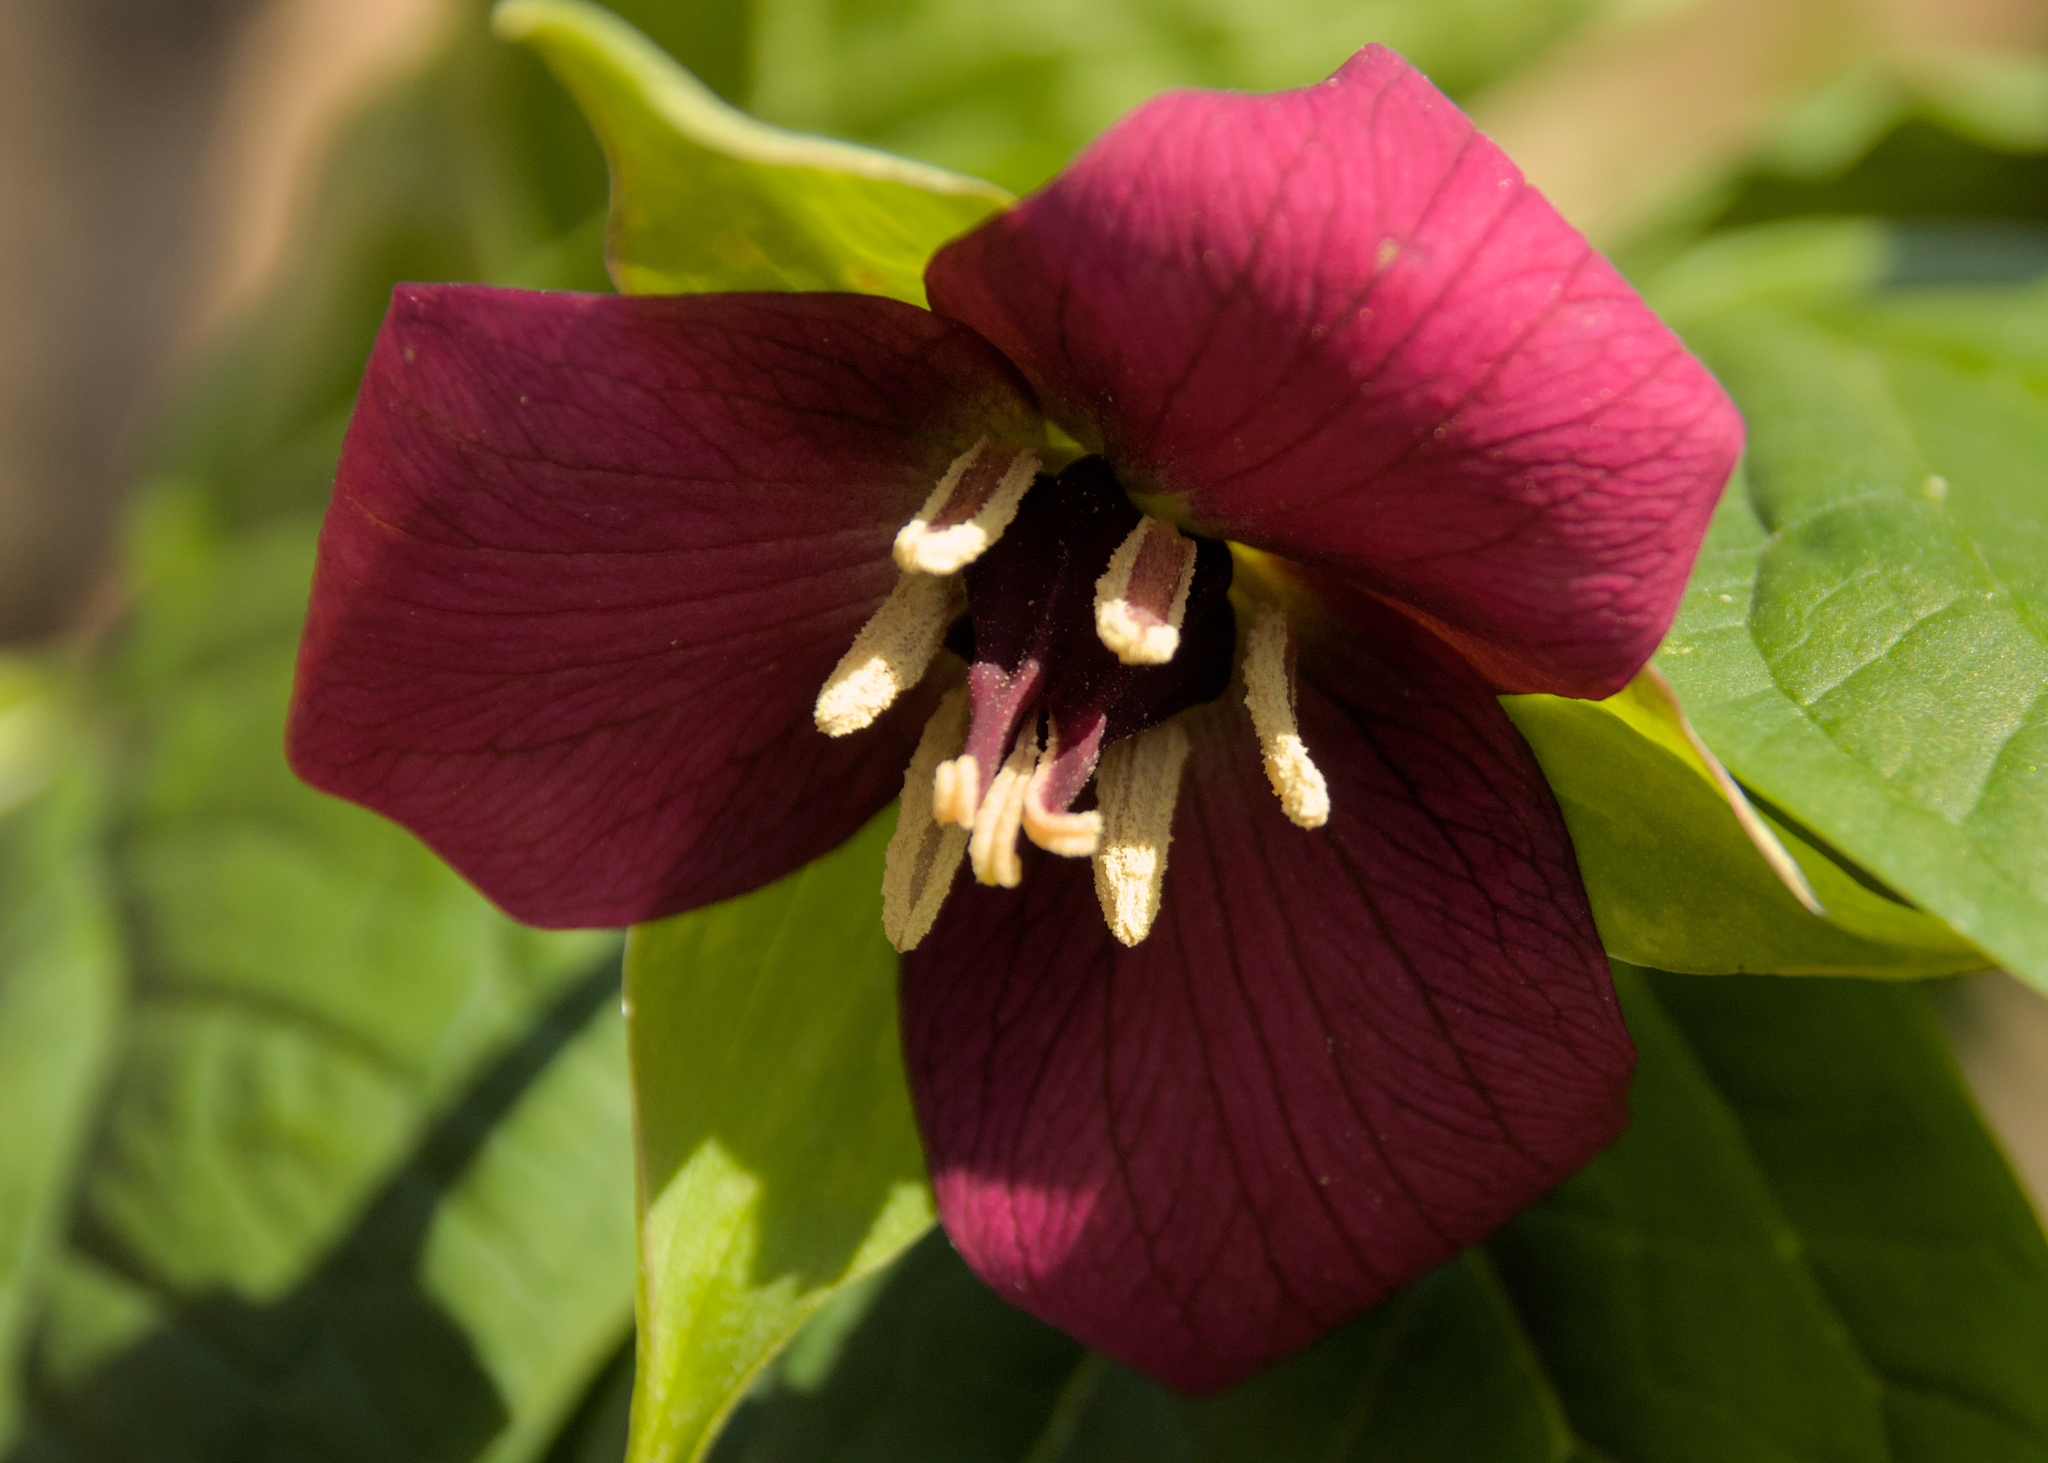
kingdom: Plantae
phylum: Tracheophyta
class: Liliopsida
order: Liliales
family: Melanthiaceae
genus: Trillium
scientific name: Trillium erectum
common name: Purple trillium
